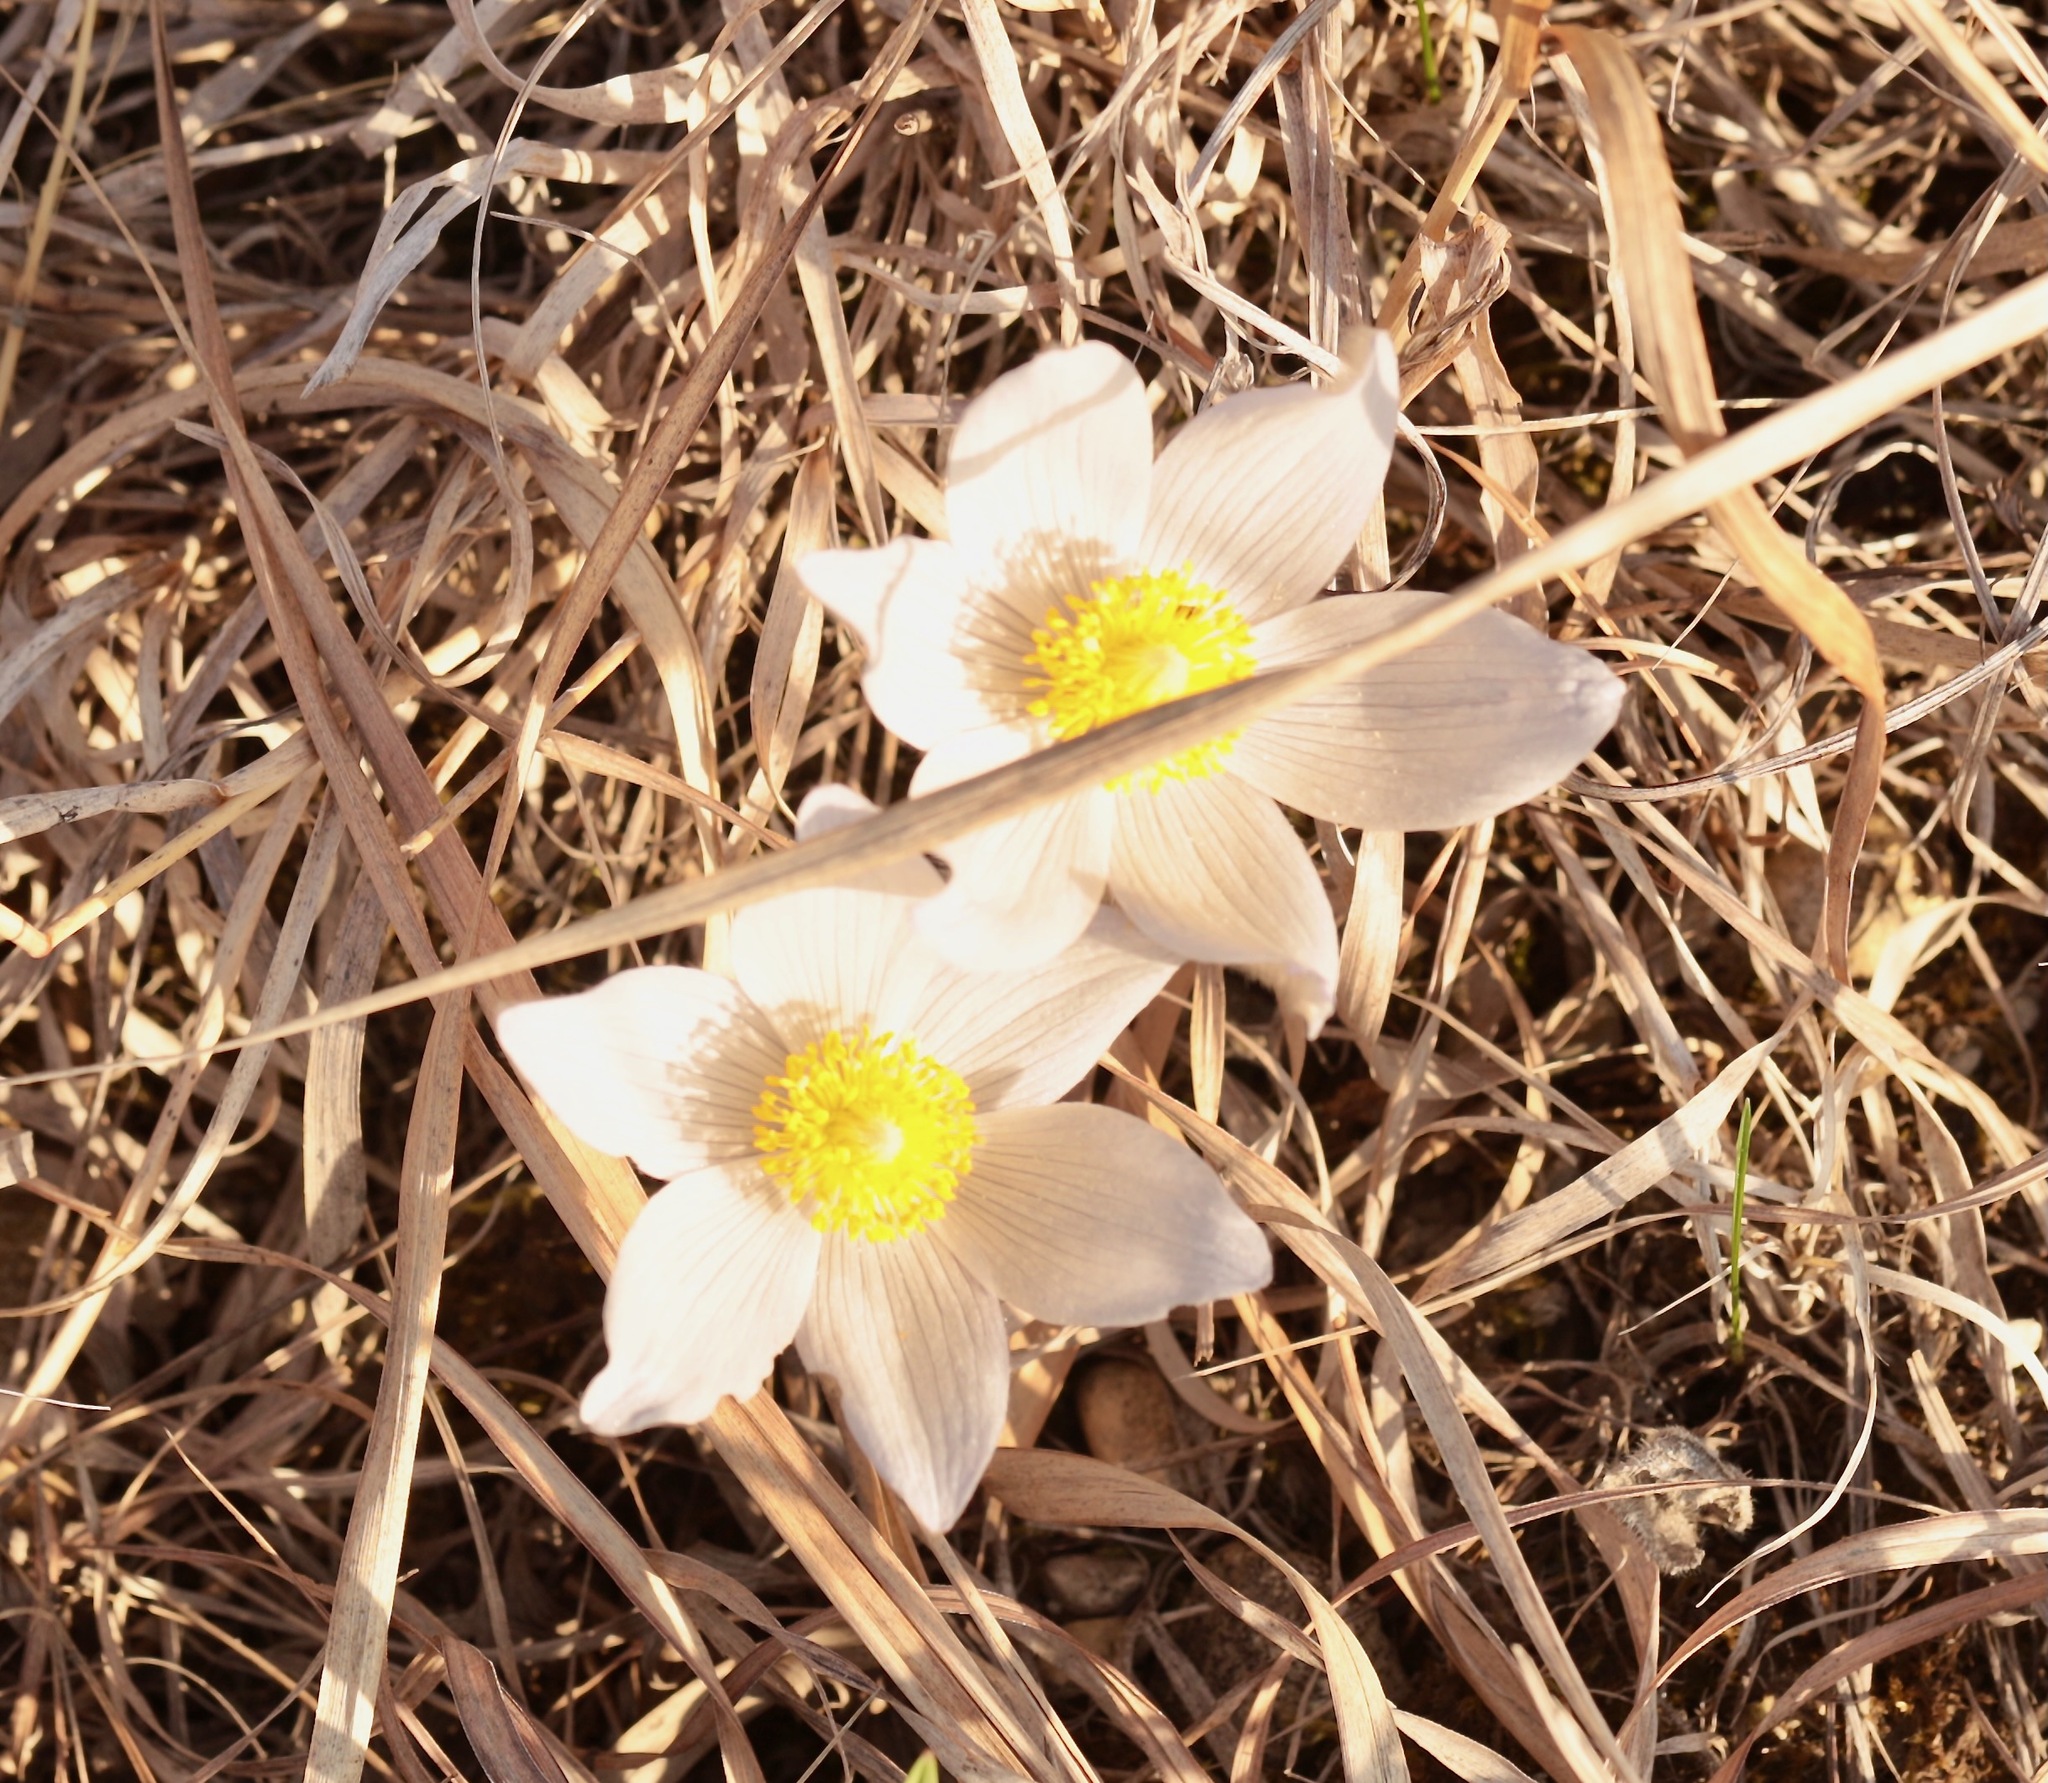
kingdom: Plantae
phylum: Tracheophyta
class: Magnoliopsida
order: Ranunculales
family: Ranunculaceae
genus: Pulsatilla
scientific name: Pulsatilla nuttalliana
